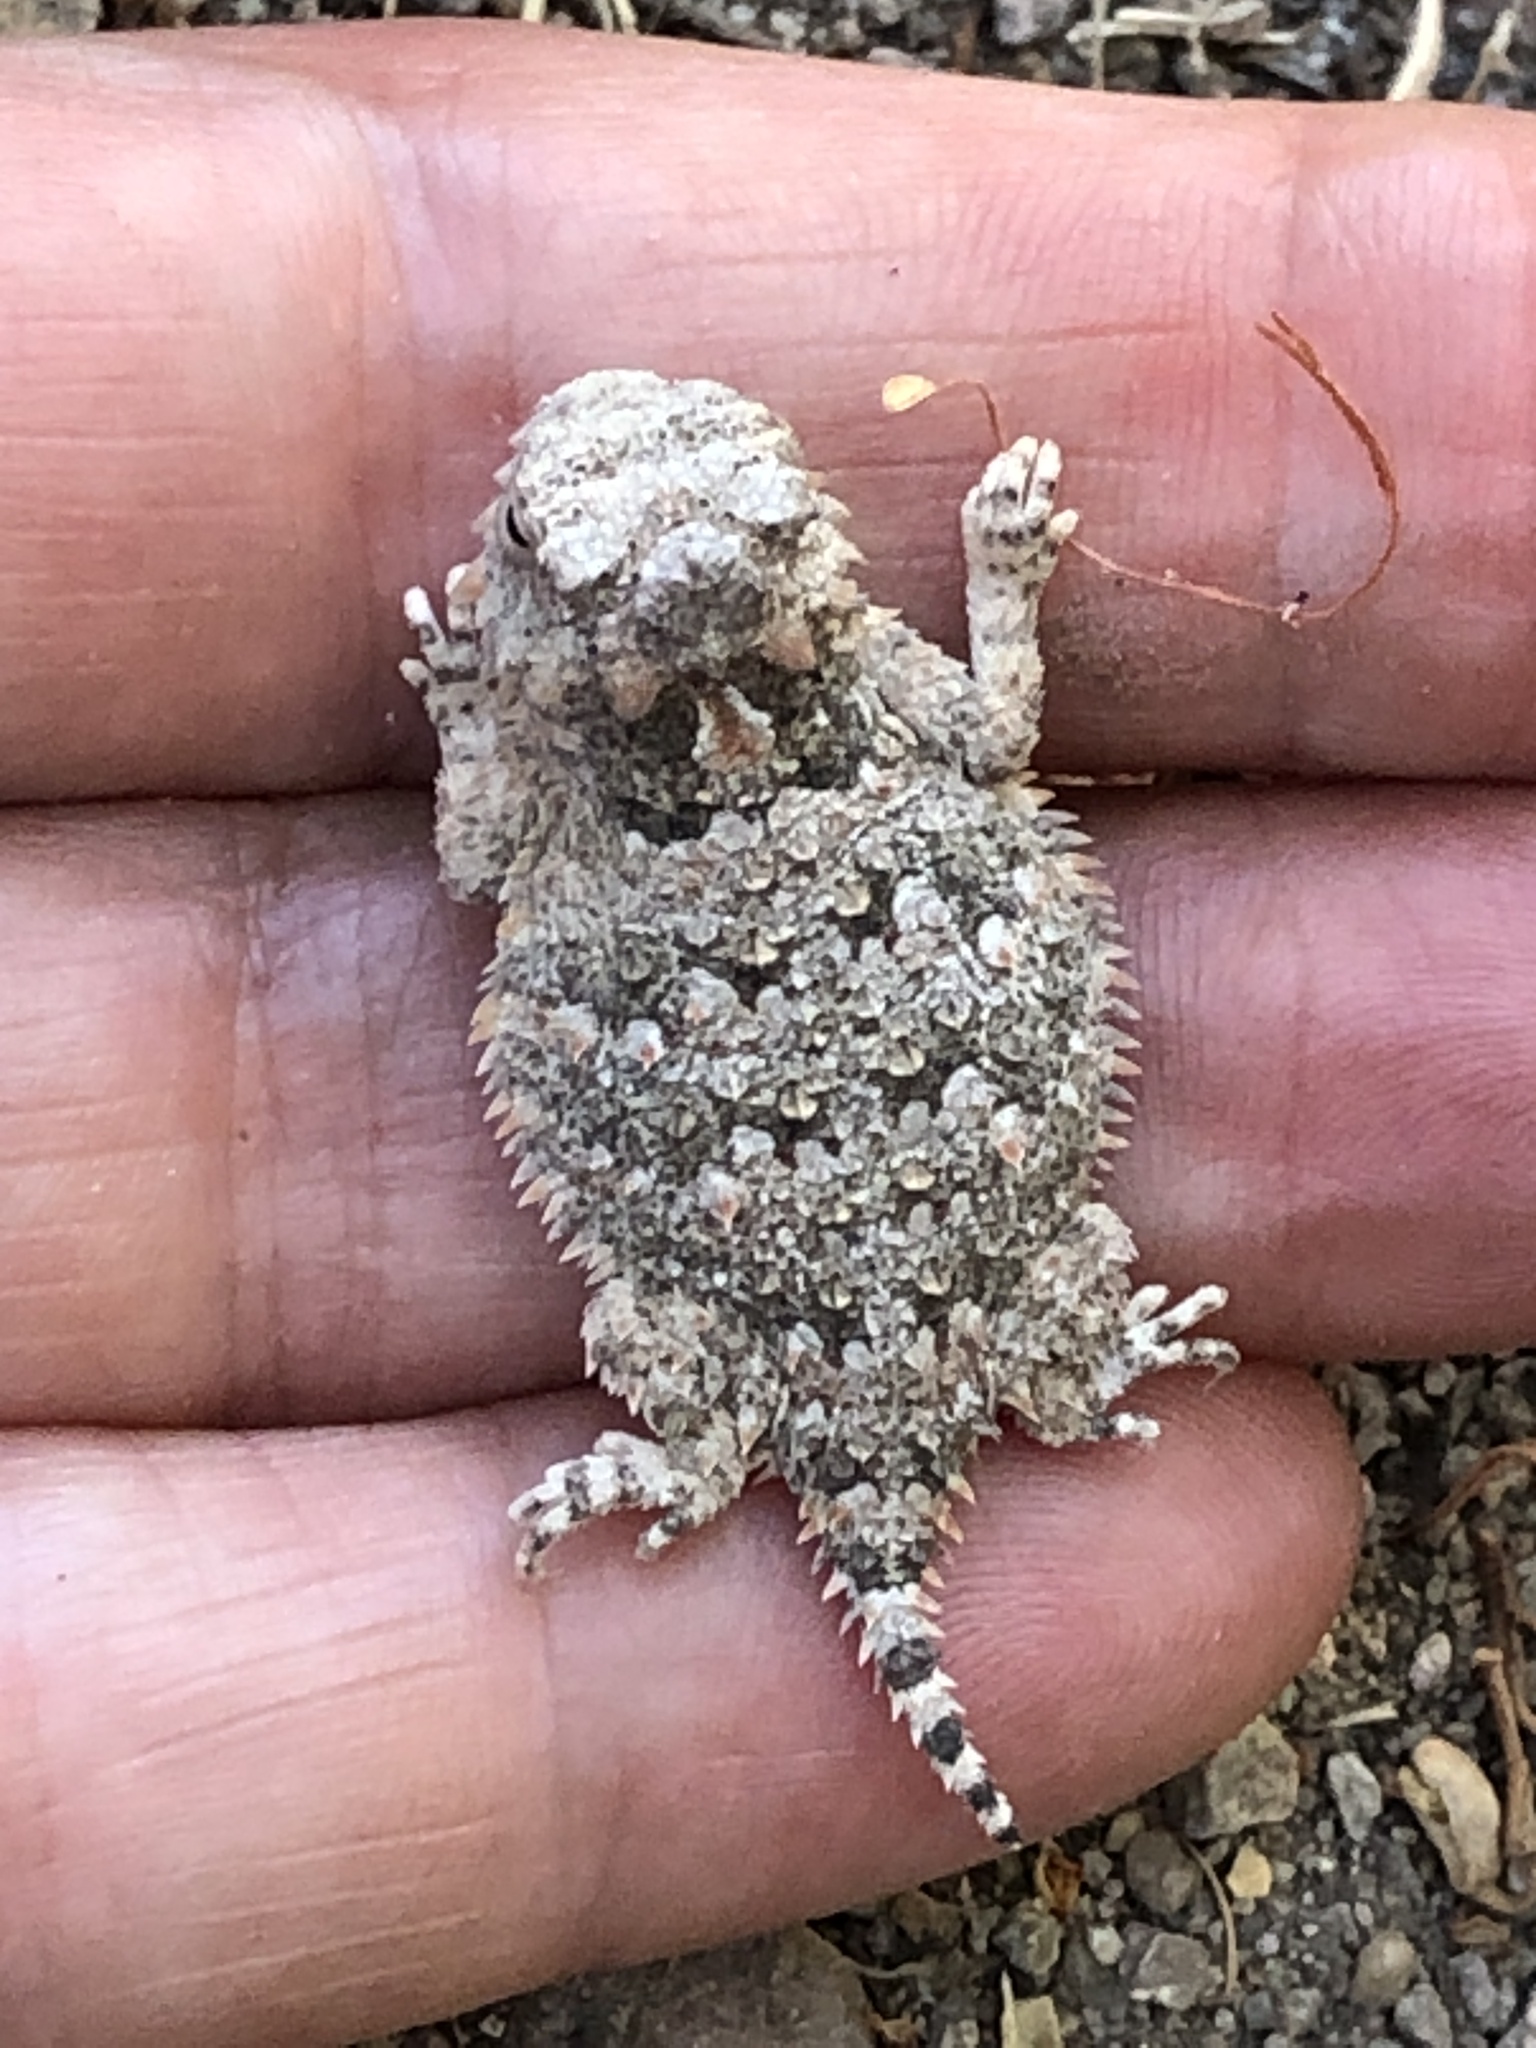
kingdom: Animalia
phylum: Chordata
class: Squamata
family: Phrynosomatidae
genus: Phrynosoma
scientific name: Phrynosoma blainvillii
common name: San diego horned lizard
